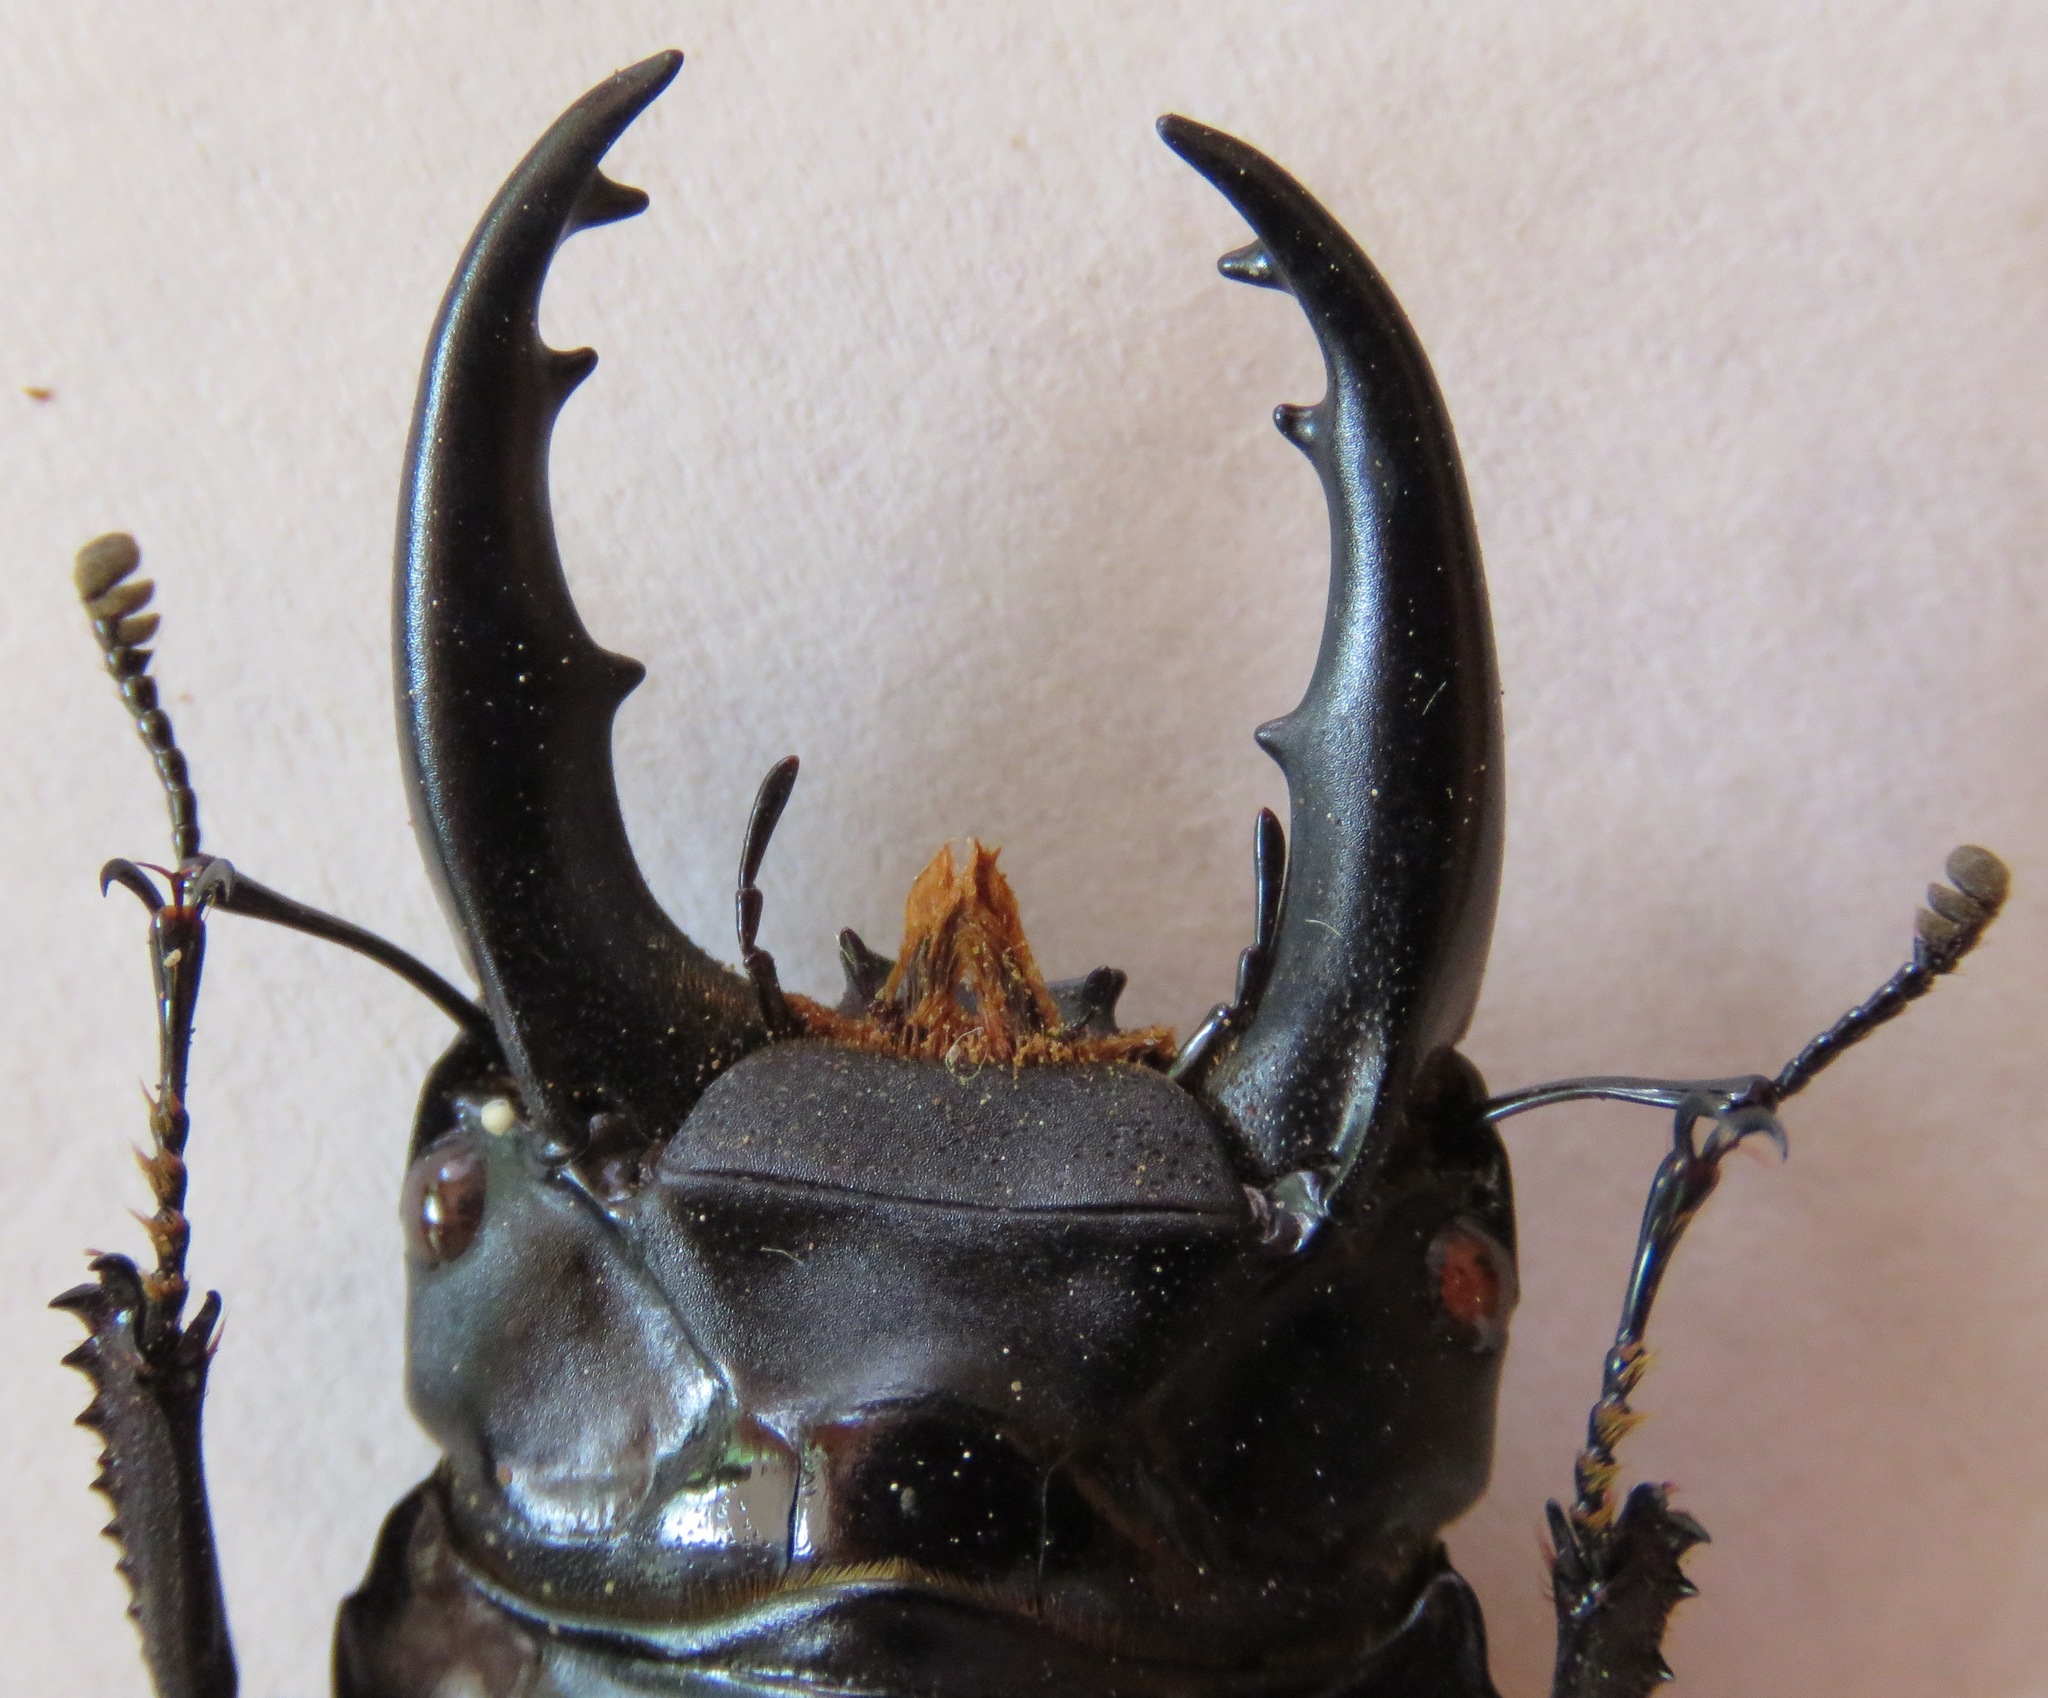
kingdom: Animalia
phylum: Arthropoda
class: Insecta
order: Coleoptera
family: Lucanidae
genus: Dorcus
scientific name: Dorcus daedalion
